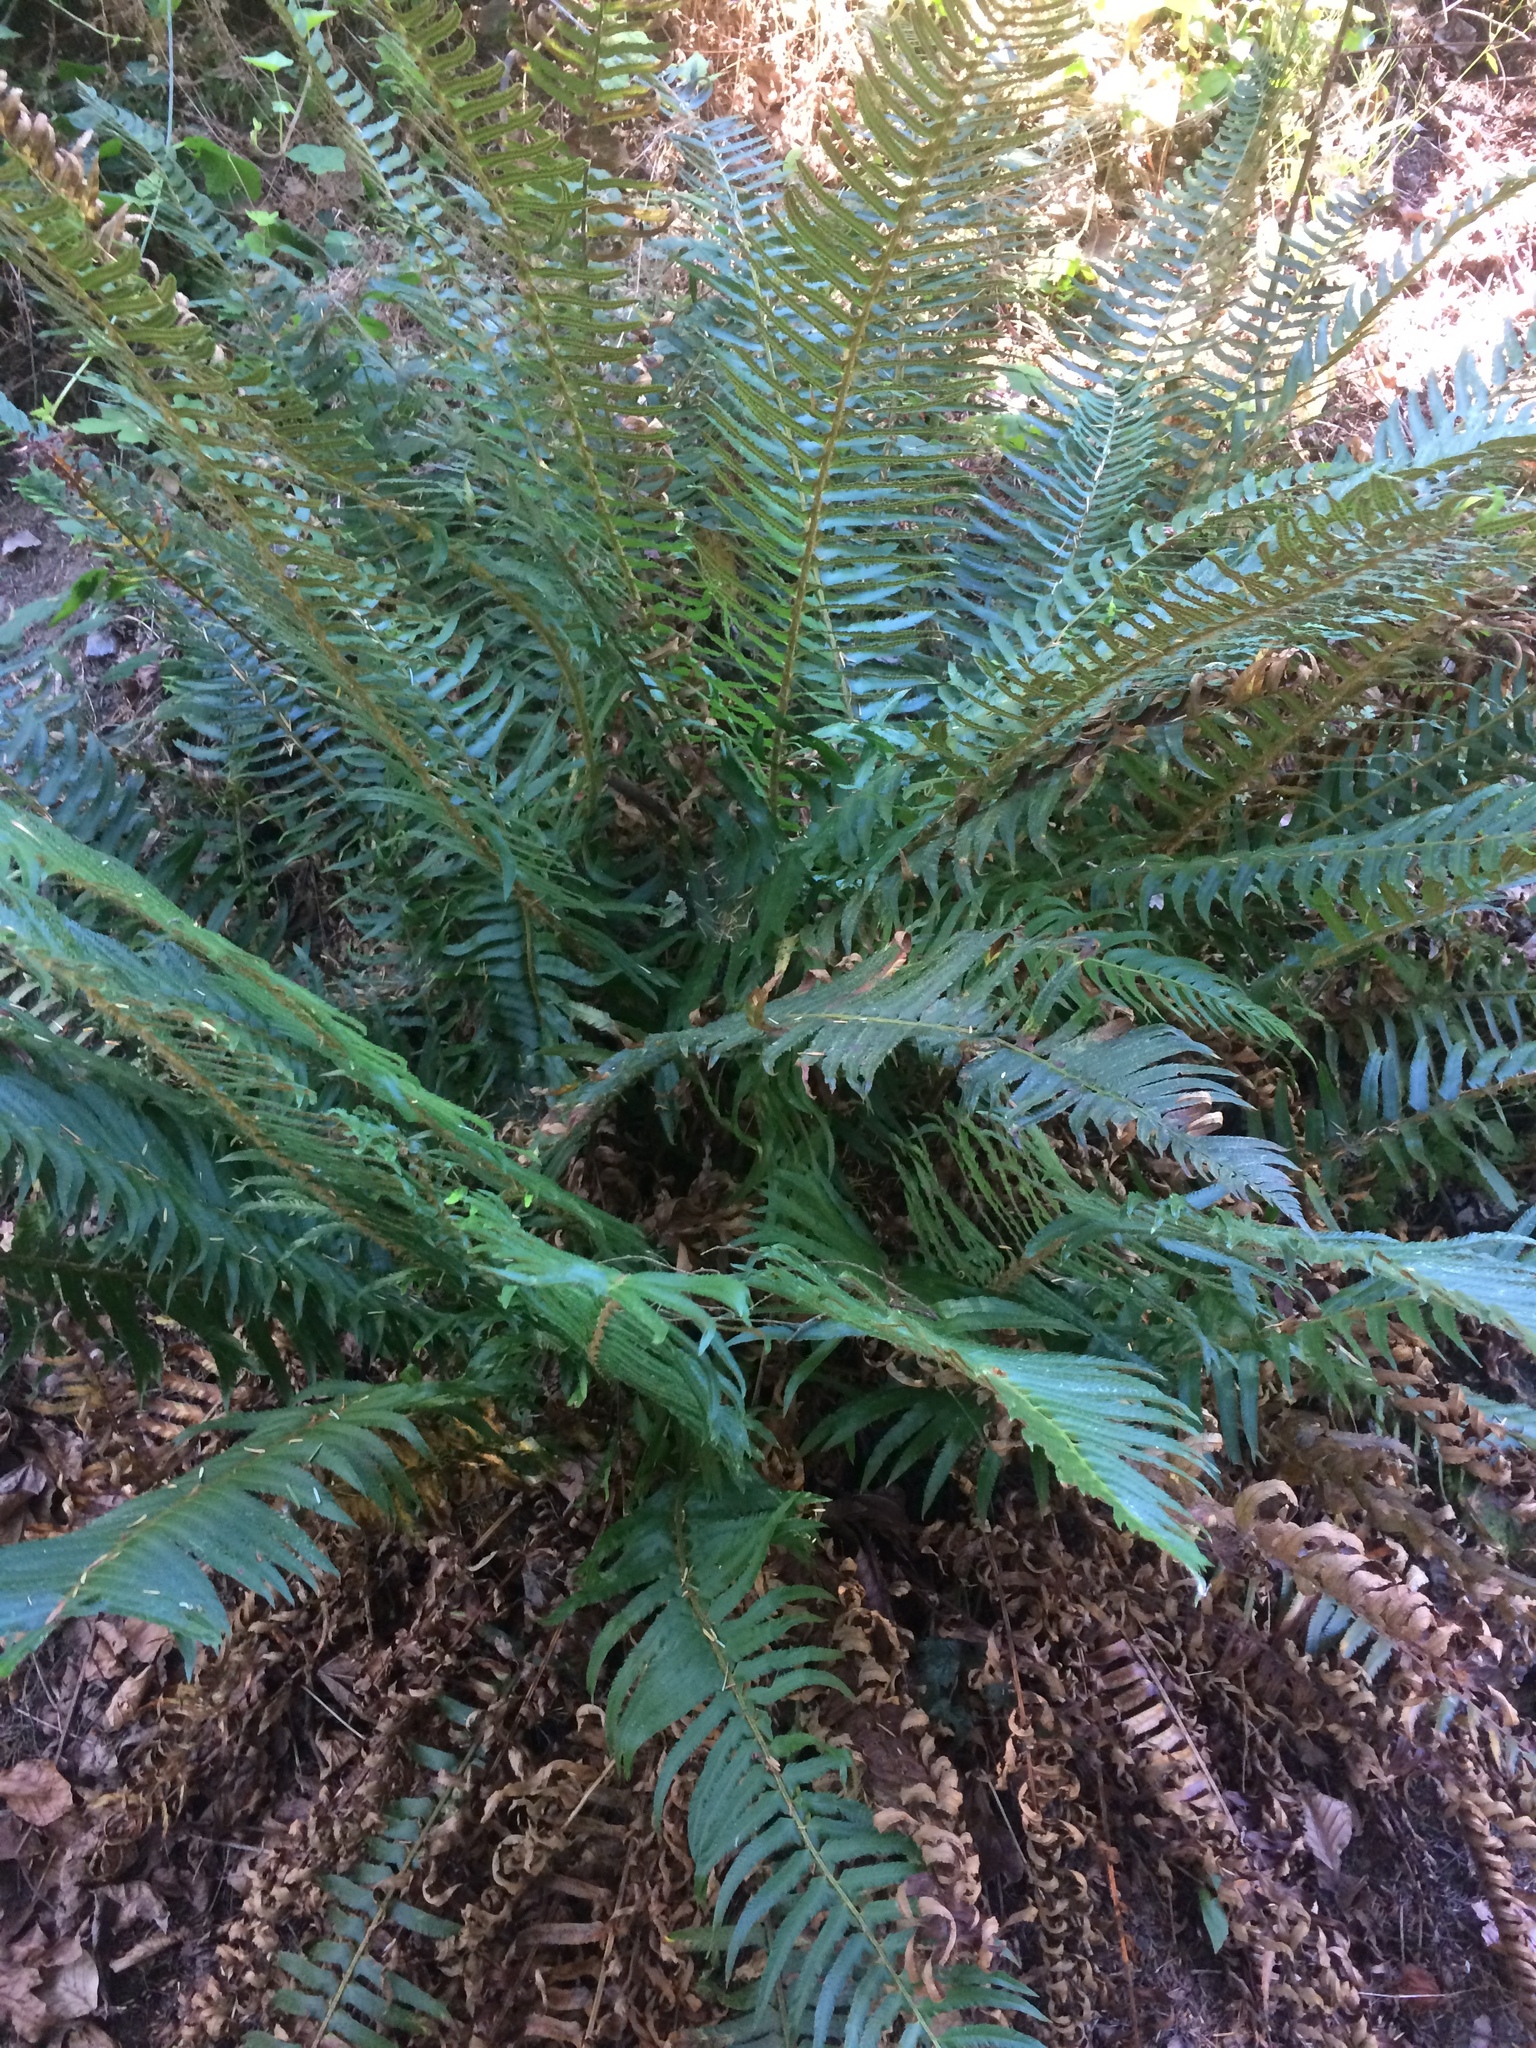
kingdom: Plantae
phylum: Tracheophyta
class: Polypodiopsida
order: Polypodiales
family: Dryopteridaceae
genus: Polystichum
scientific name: Polystichum munitum
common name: Western sword-fern
